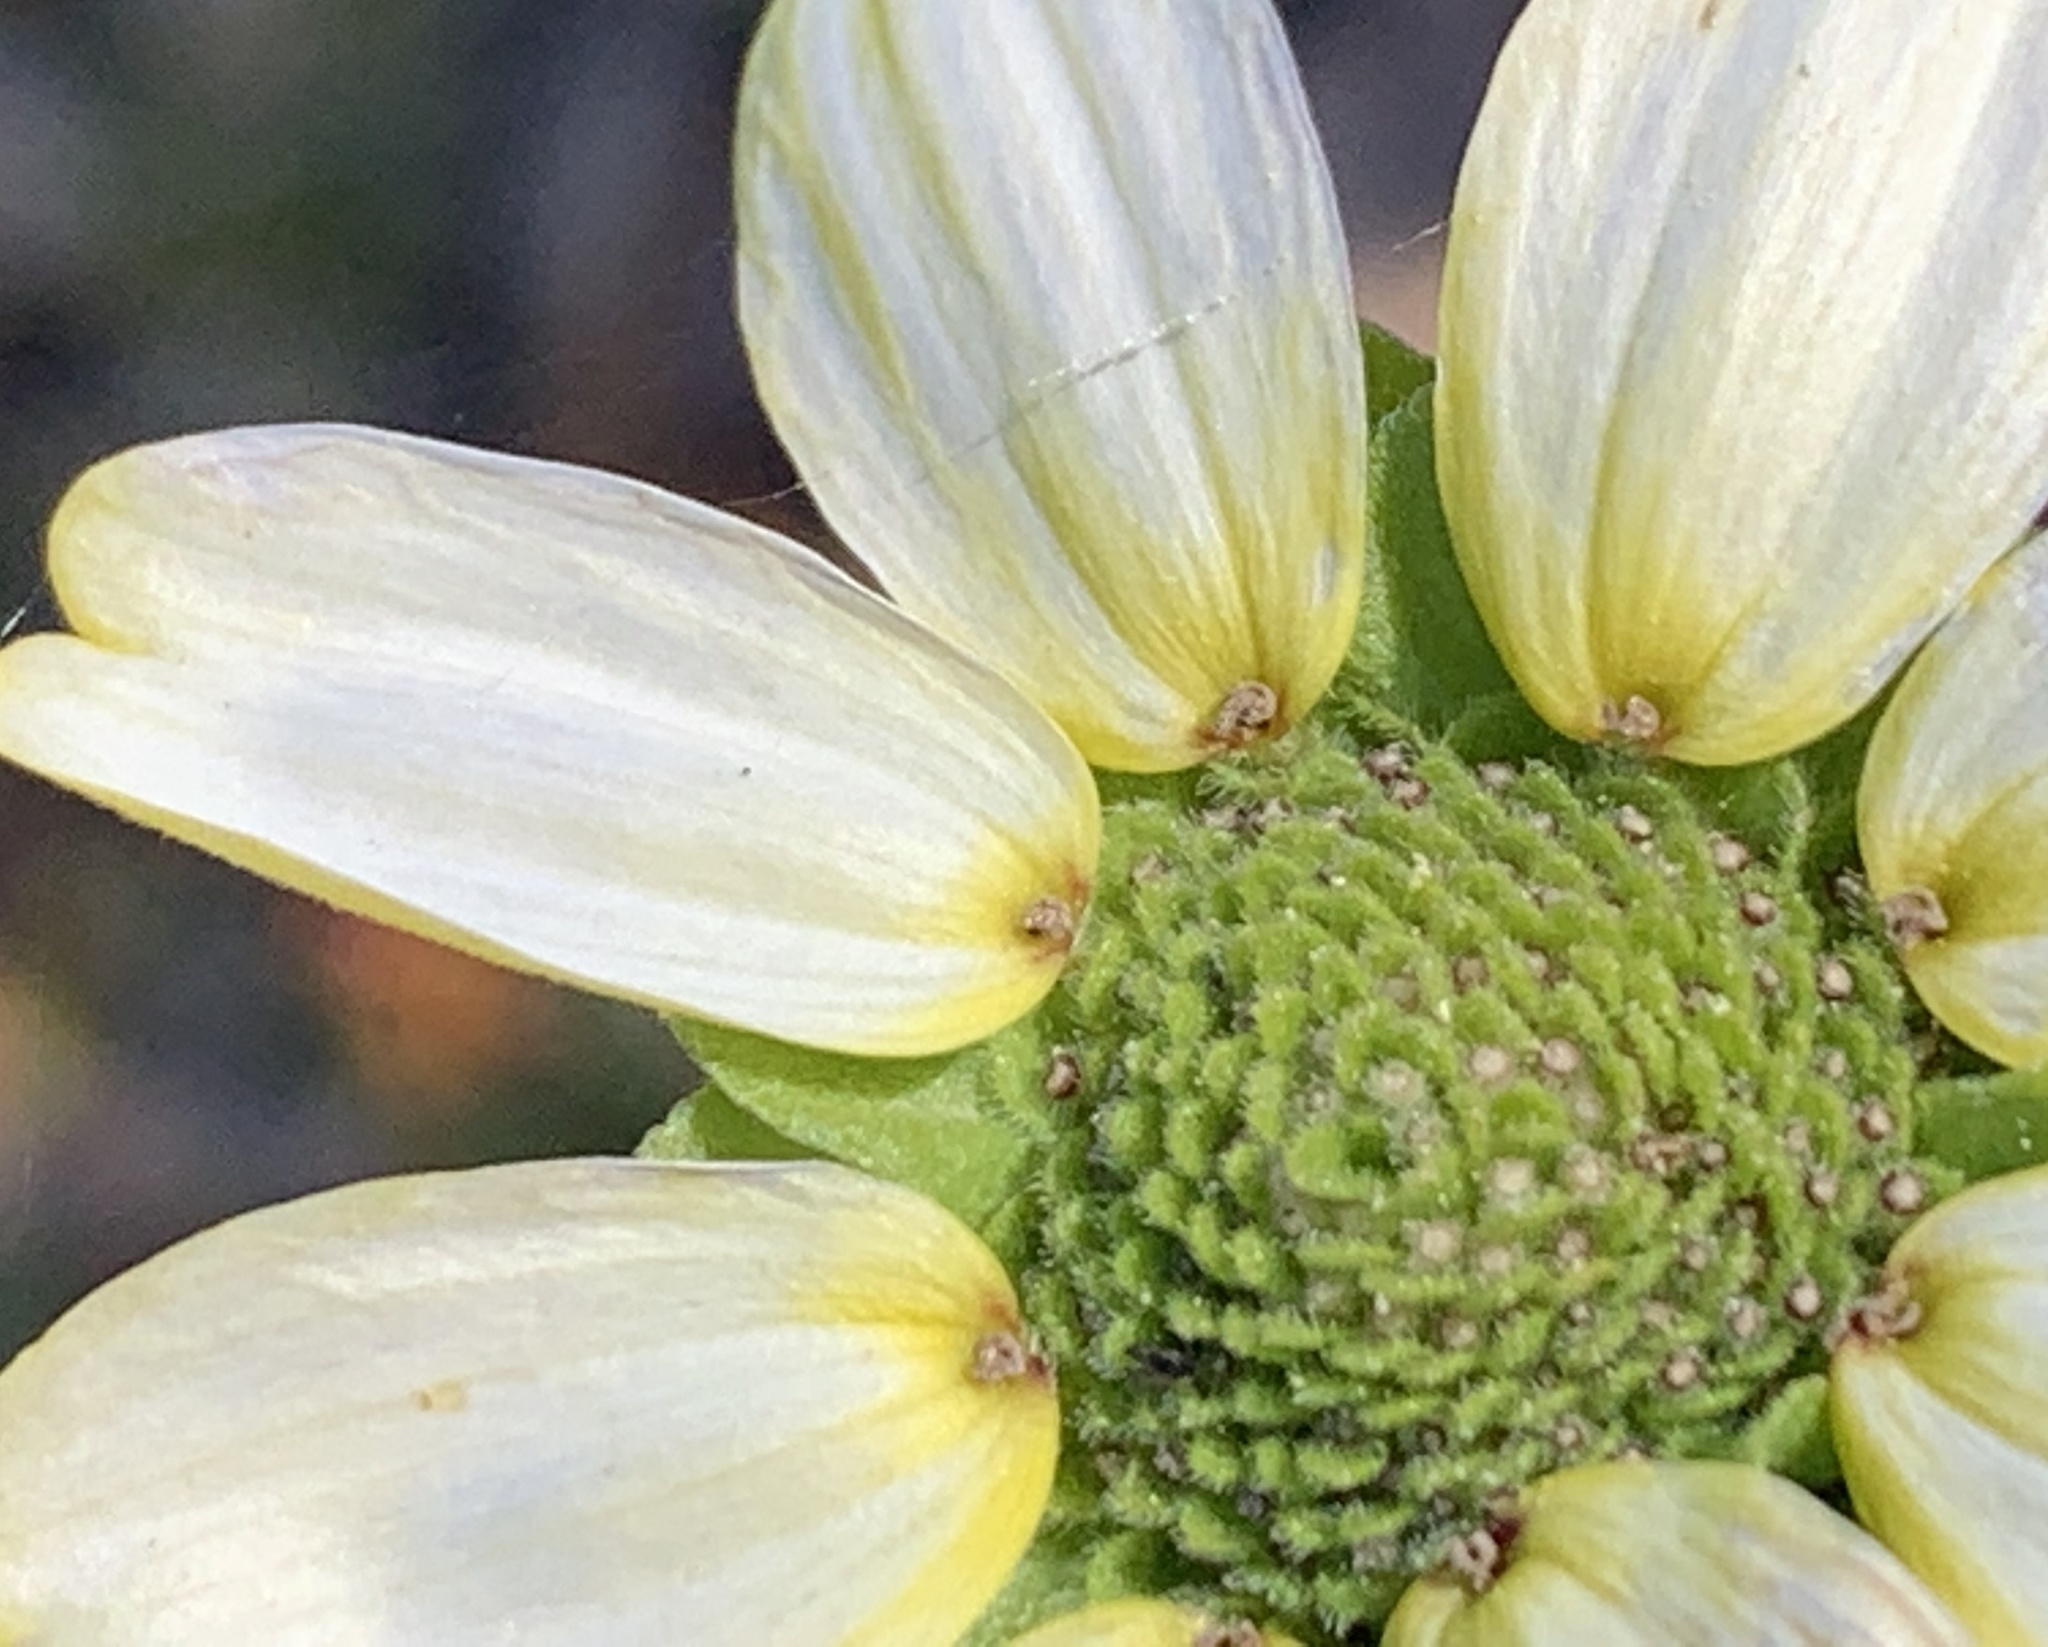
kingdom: Plantae
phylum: Tracheophyta
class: Magnoliopsida
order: Asterales
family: Asteraceae
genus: Berlandiera
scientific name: Berlandiera subacaulis
